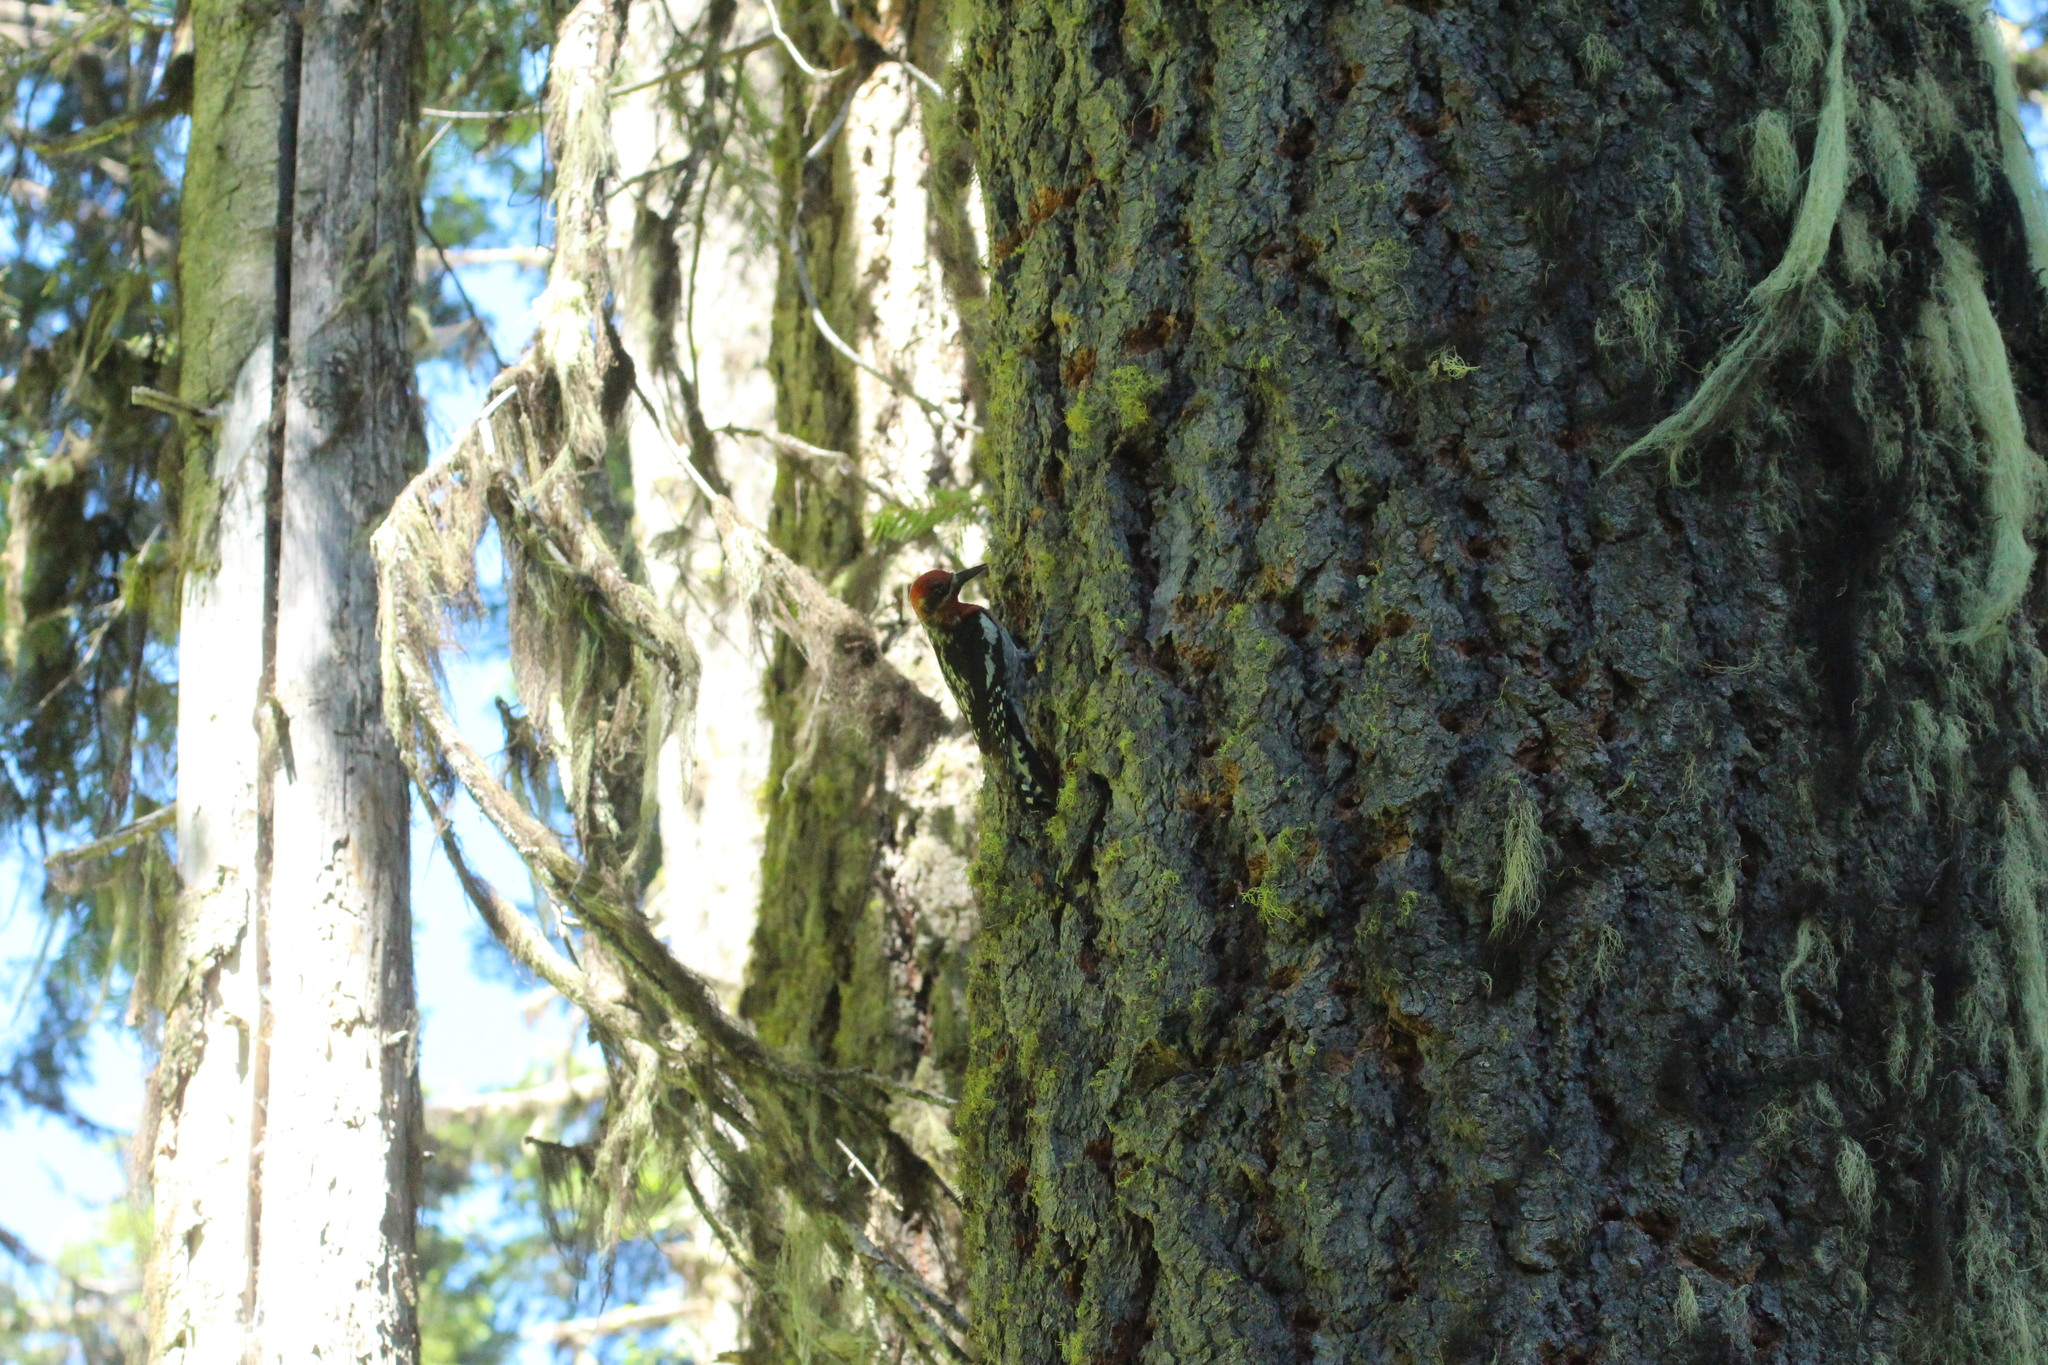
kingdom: Animalia
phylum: Chordata
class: Aves
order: Piciformes
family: Picidae
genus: Sphyrapicus
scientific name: Sphyrapicus ruber
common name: Red-breasted sapsucker
